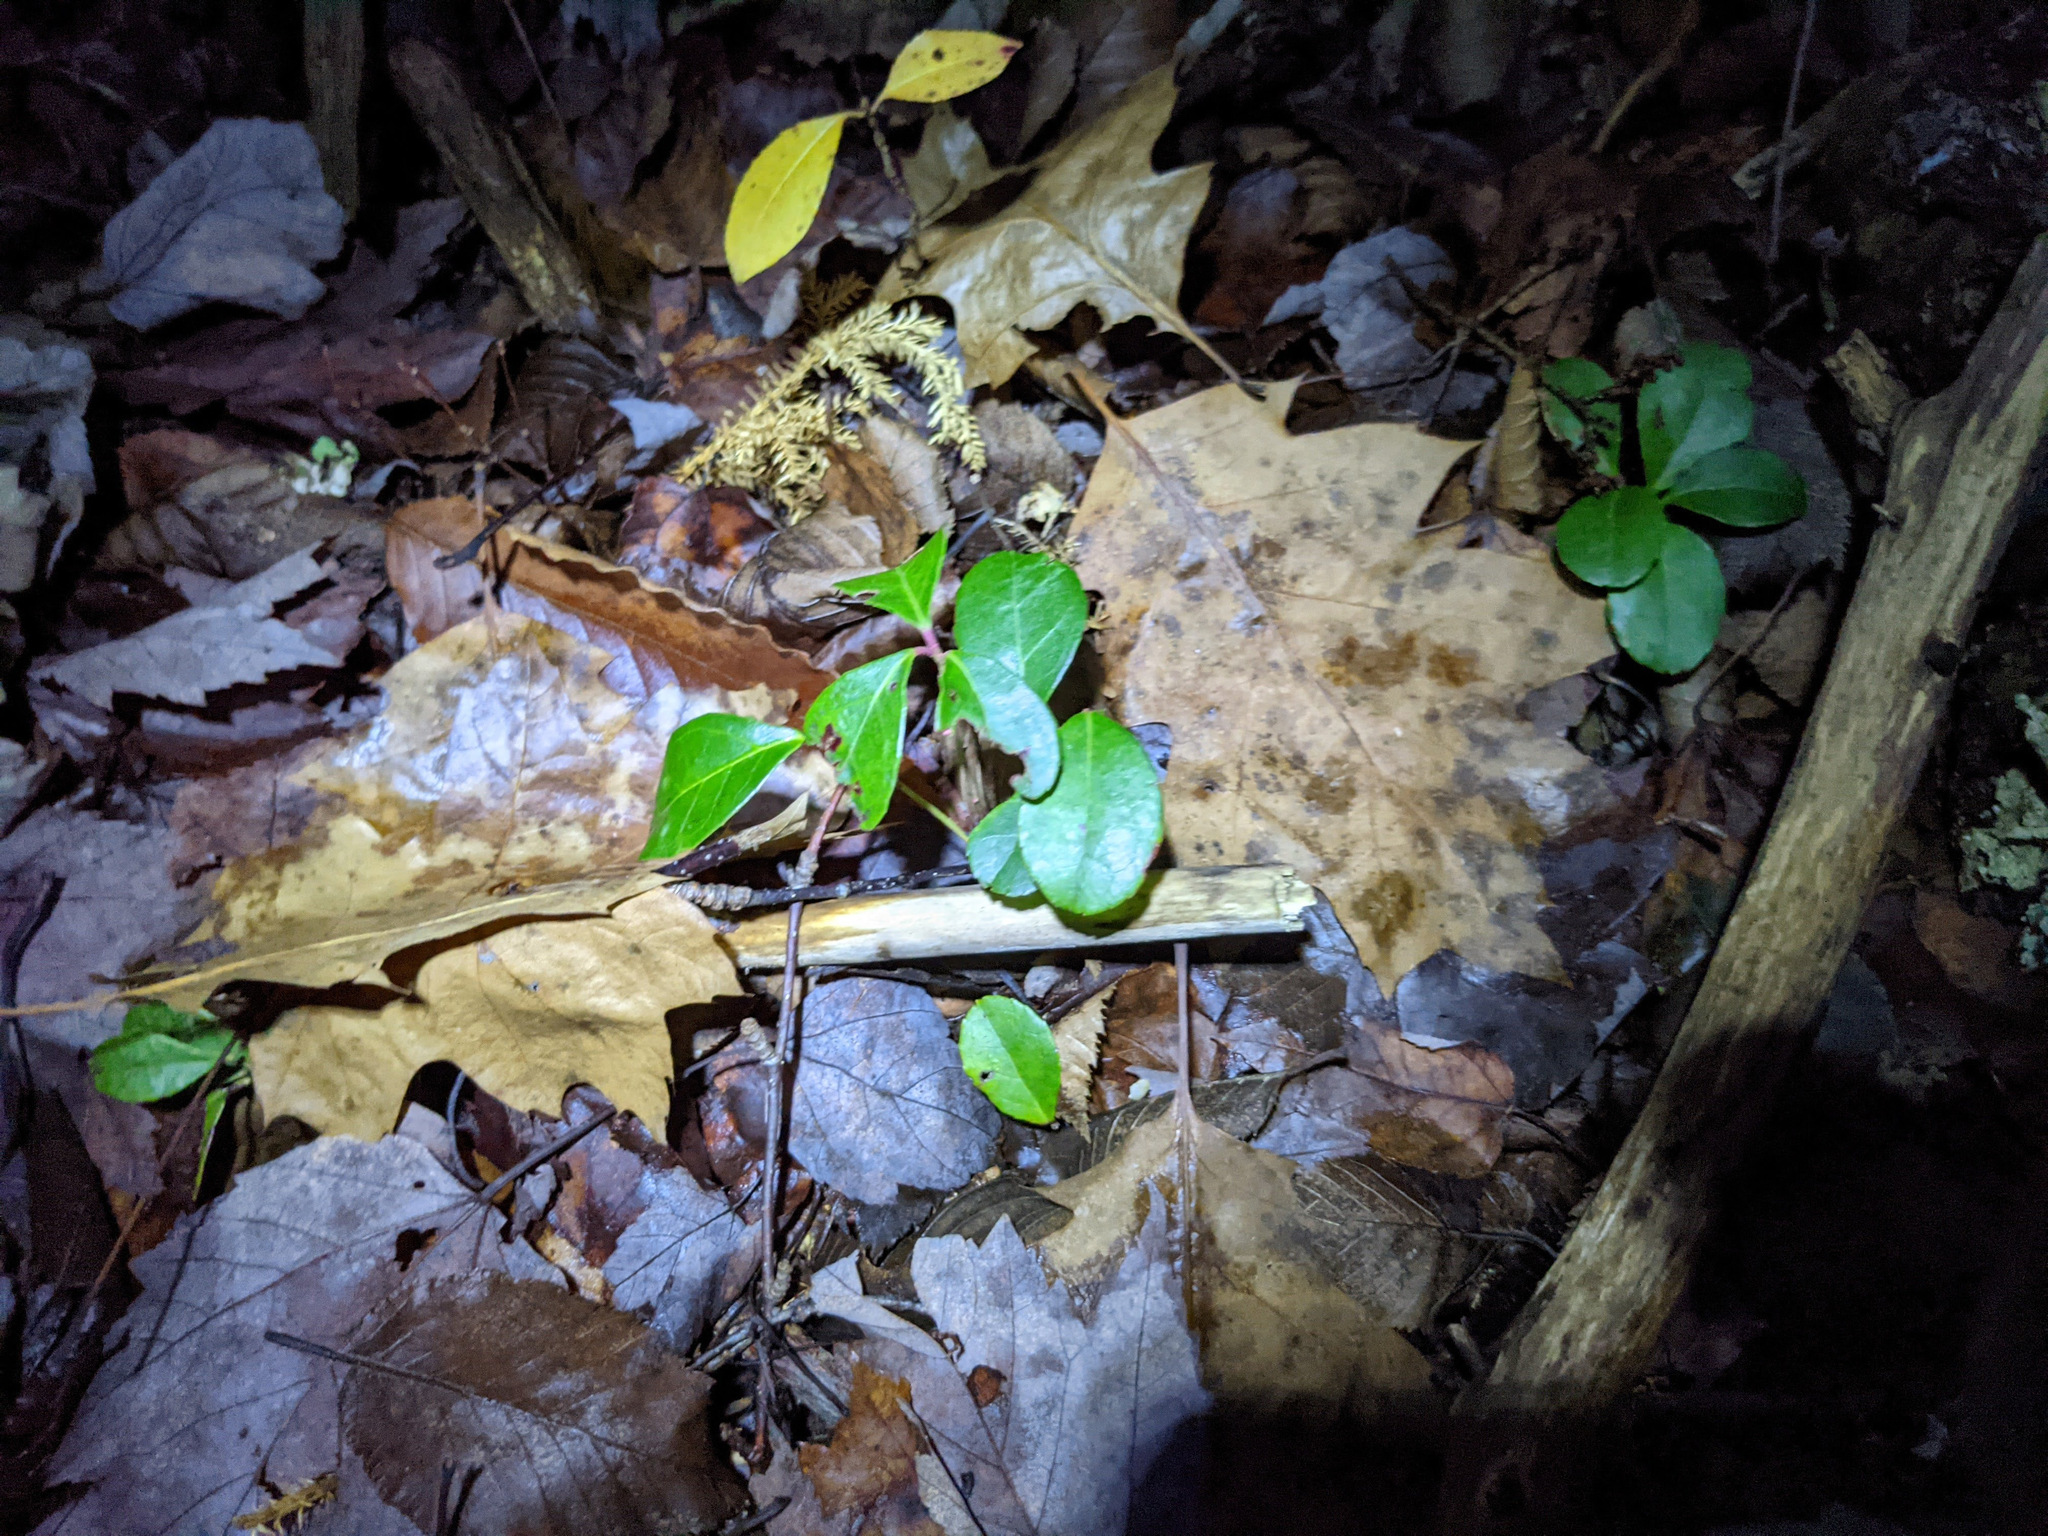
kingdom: Plantae
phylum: Tracheophyta
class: Magnoliopsida
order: Ericales
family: Ericaceae
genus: Gaultheria
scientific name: Gaultheria procumbens
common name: Checkerberry
